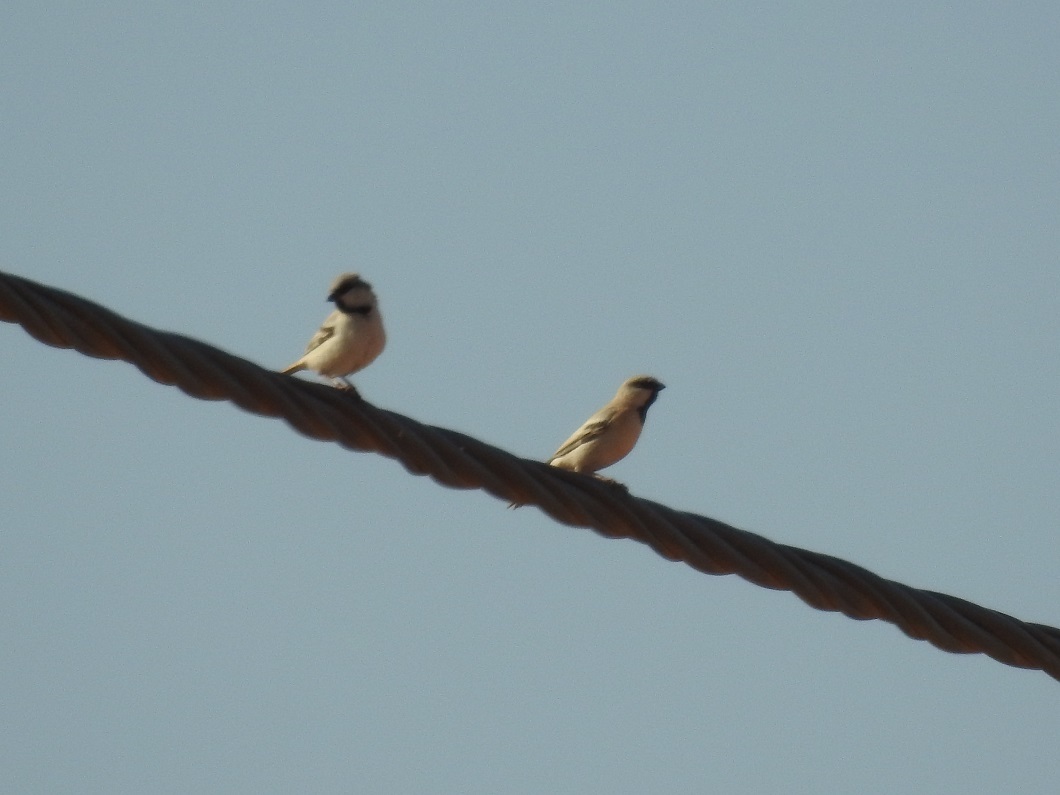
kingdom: Animalia
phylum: Chordata
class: Aves
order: Passeriformes
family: Passeridae
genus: Passer
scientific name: Passer simplex
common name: Desert sparrow
